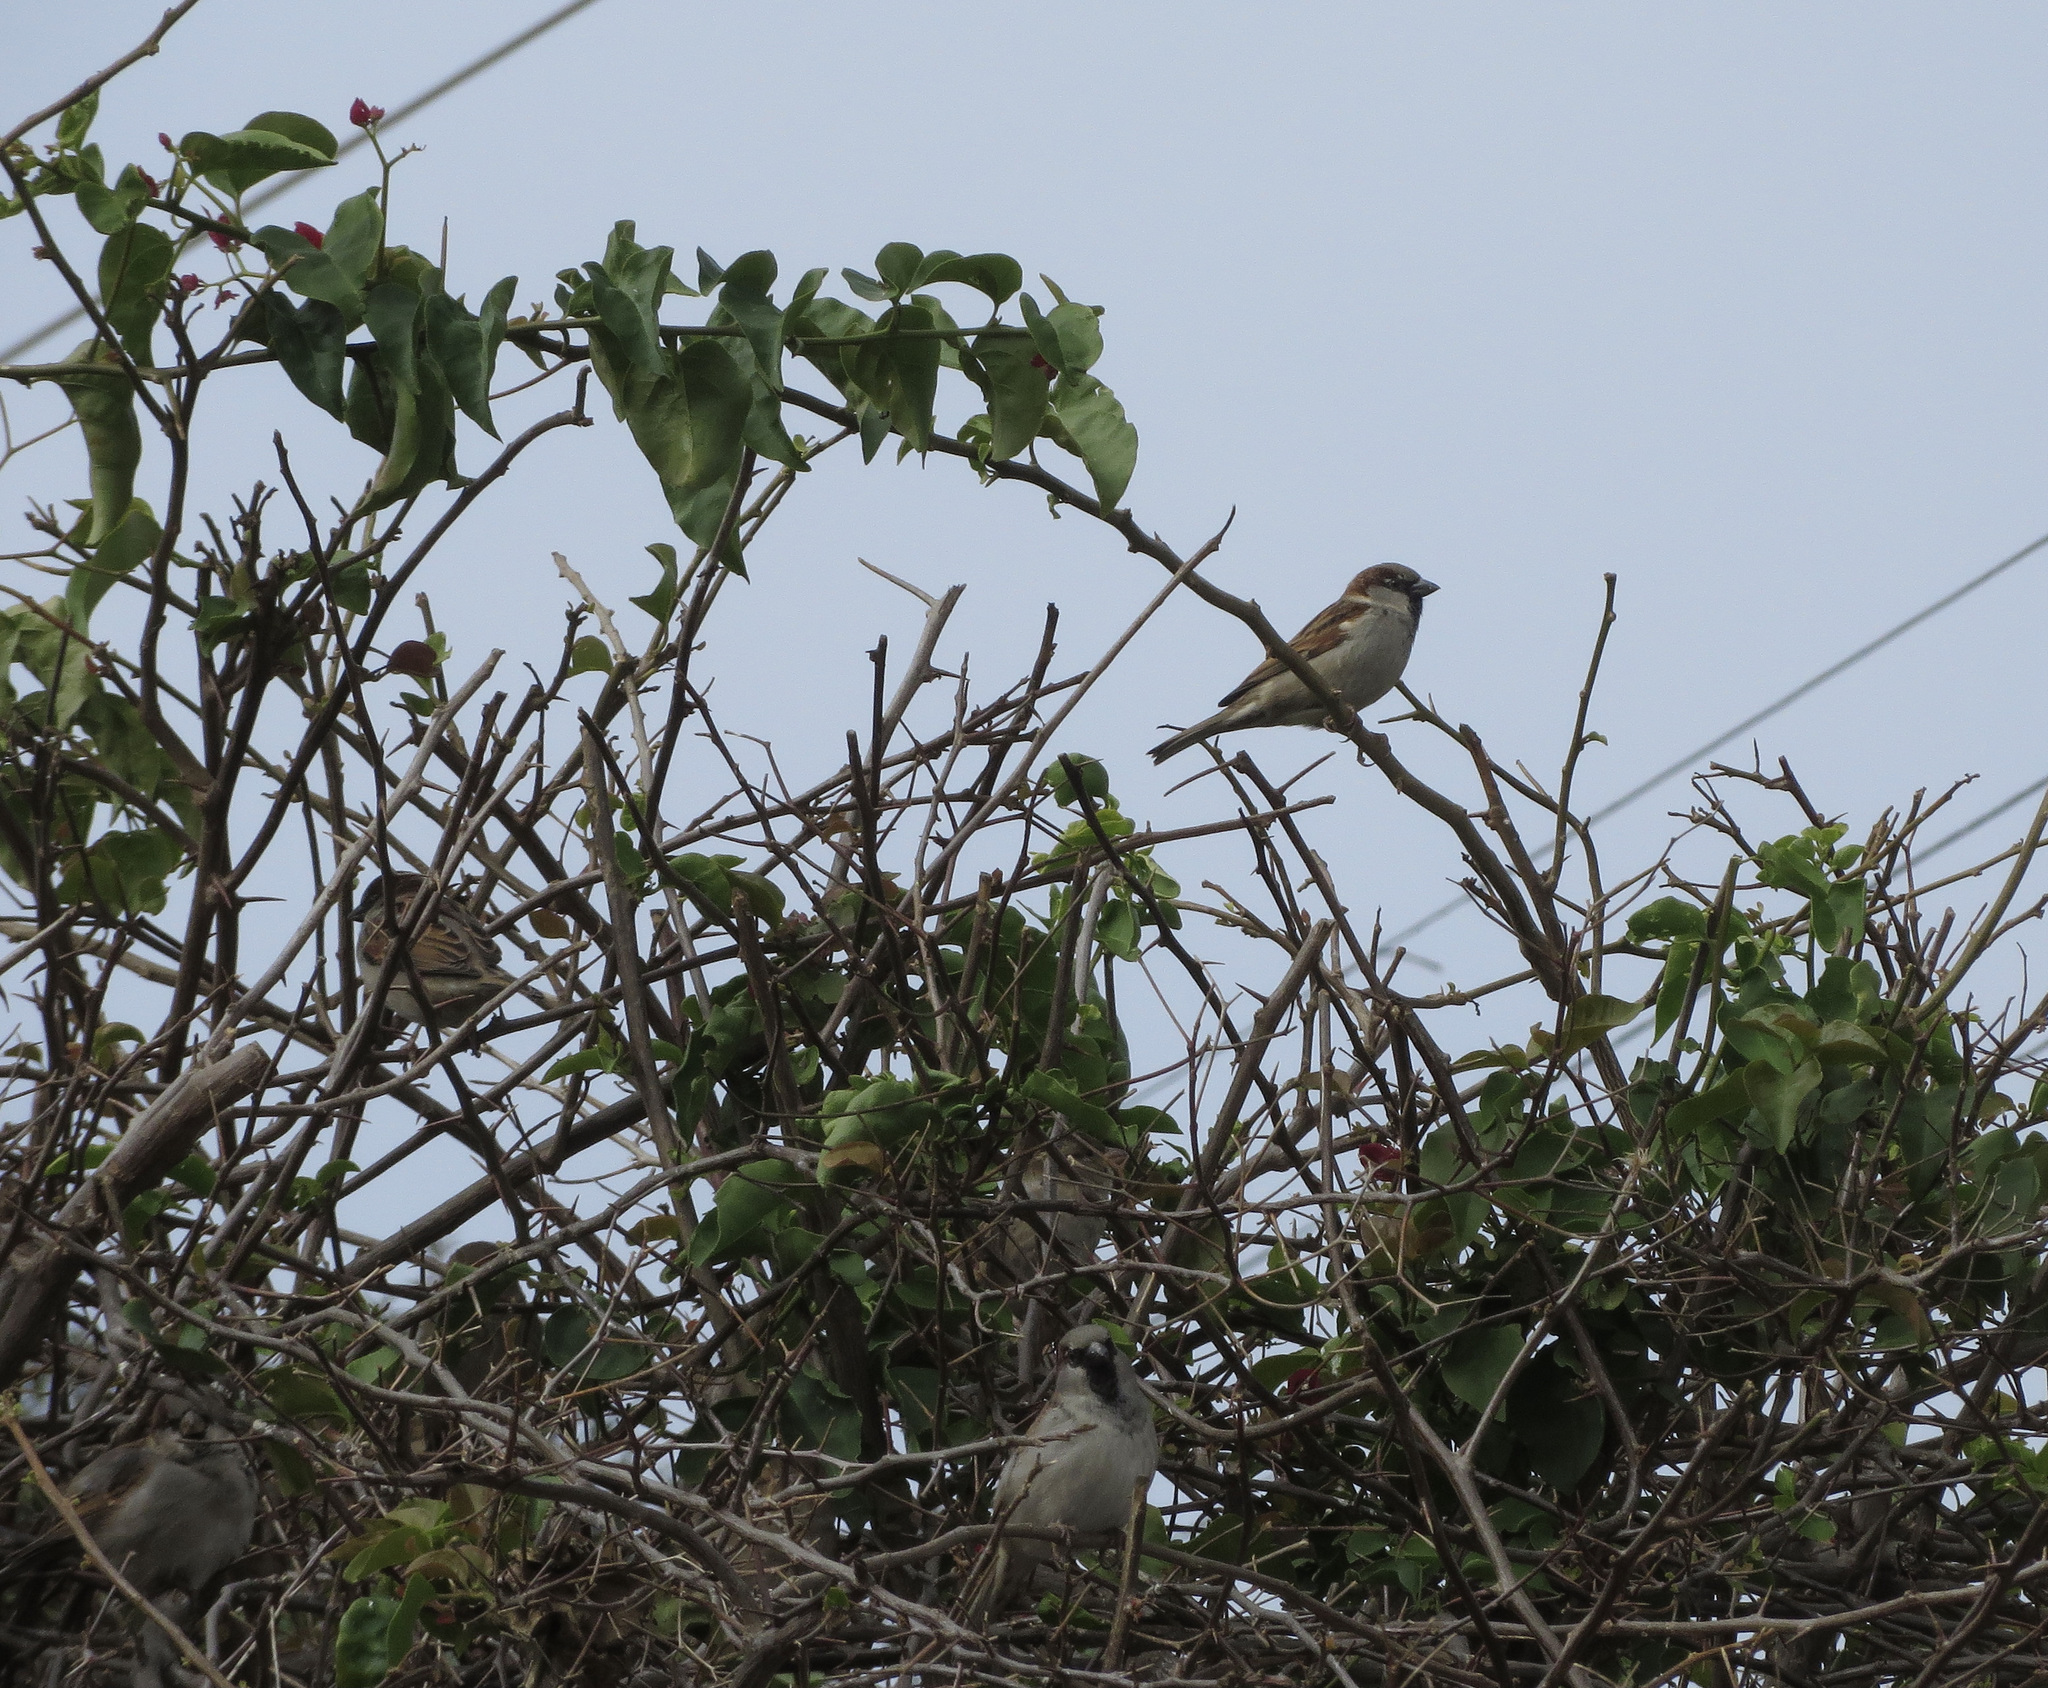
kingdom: Animalia
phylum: Chordata
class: Aves
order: Passeriformes
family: Passeridae
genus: Passer
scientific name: Passer domesticus
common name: House sparrow
